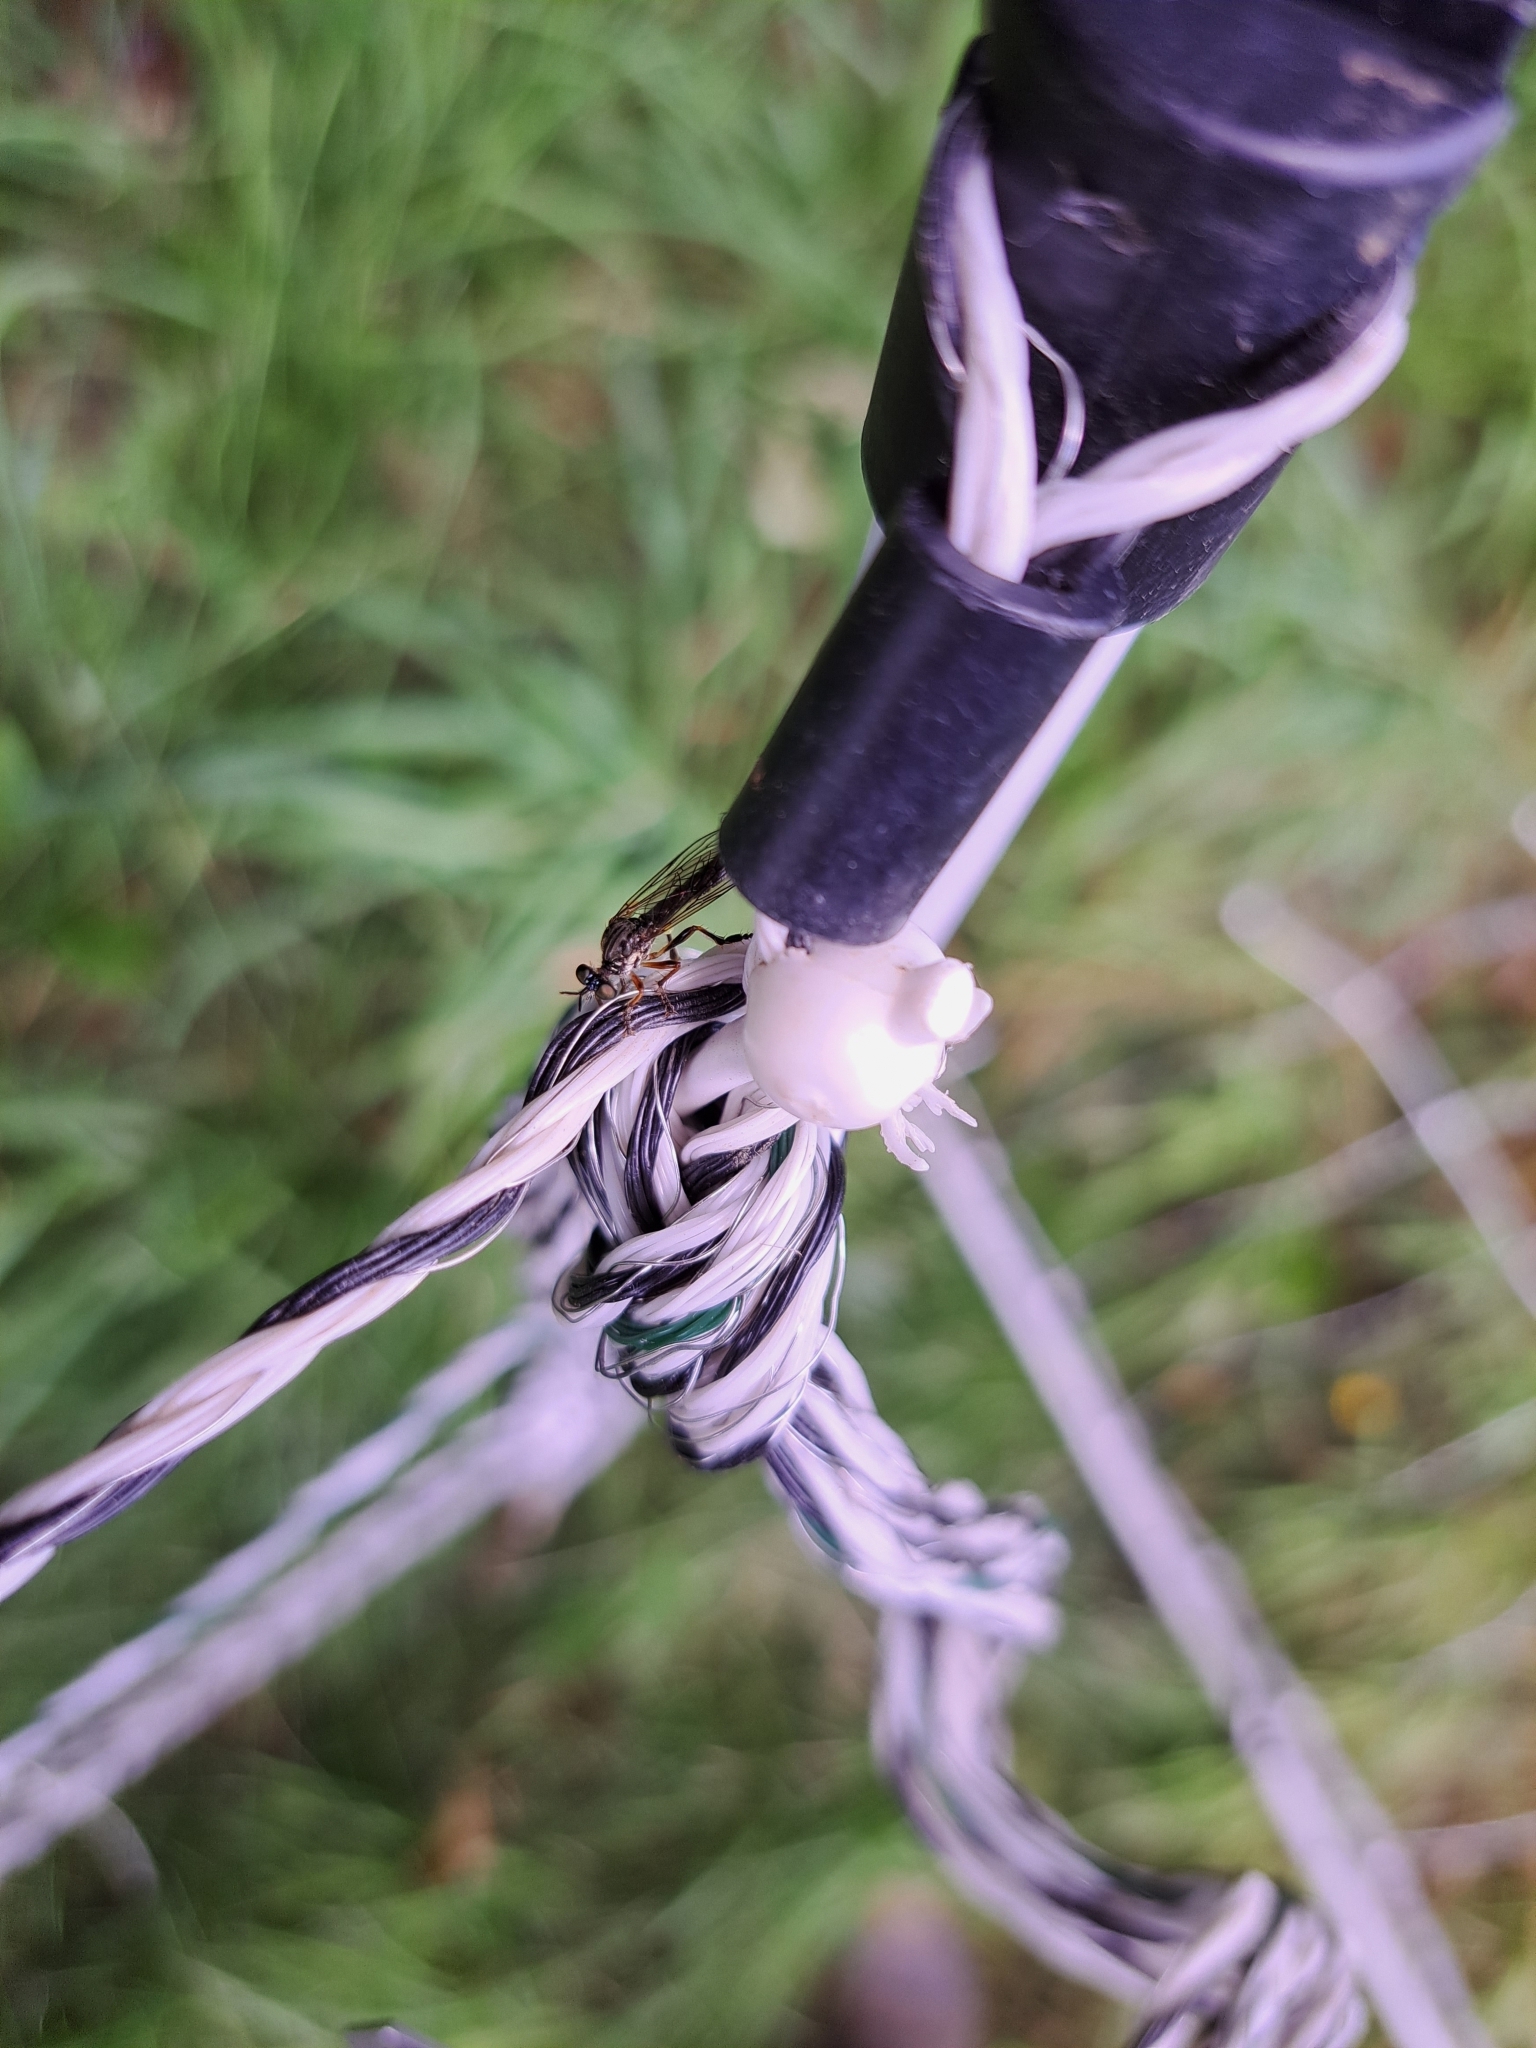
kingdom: Animalia
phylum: Arthropoda
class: Insecta
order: Diptera
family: Asilidae
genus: Dioctria
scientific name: Dioctria hyalipennis
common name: Stripe-legged robberfly
